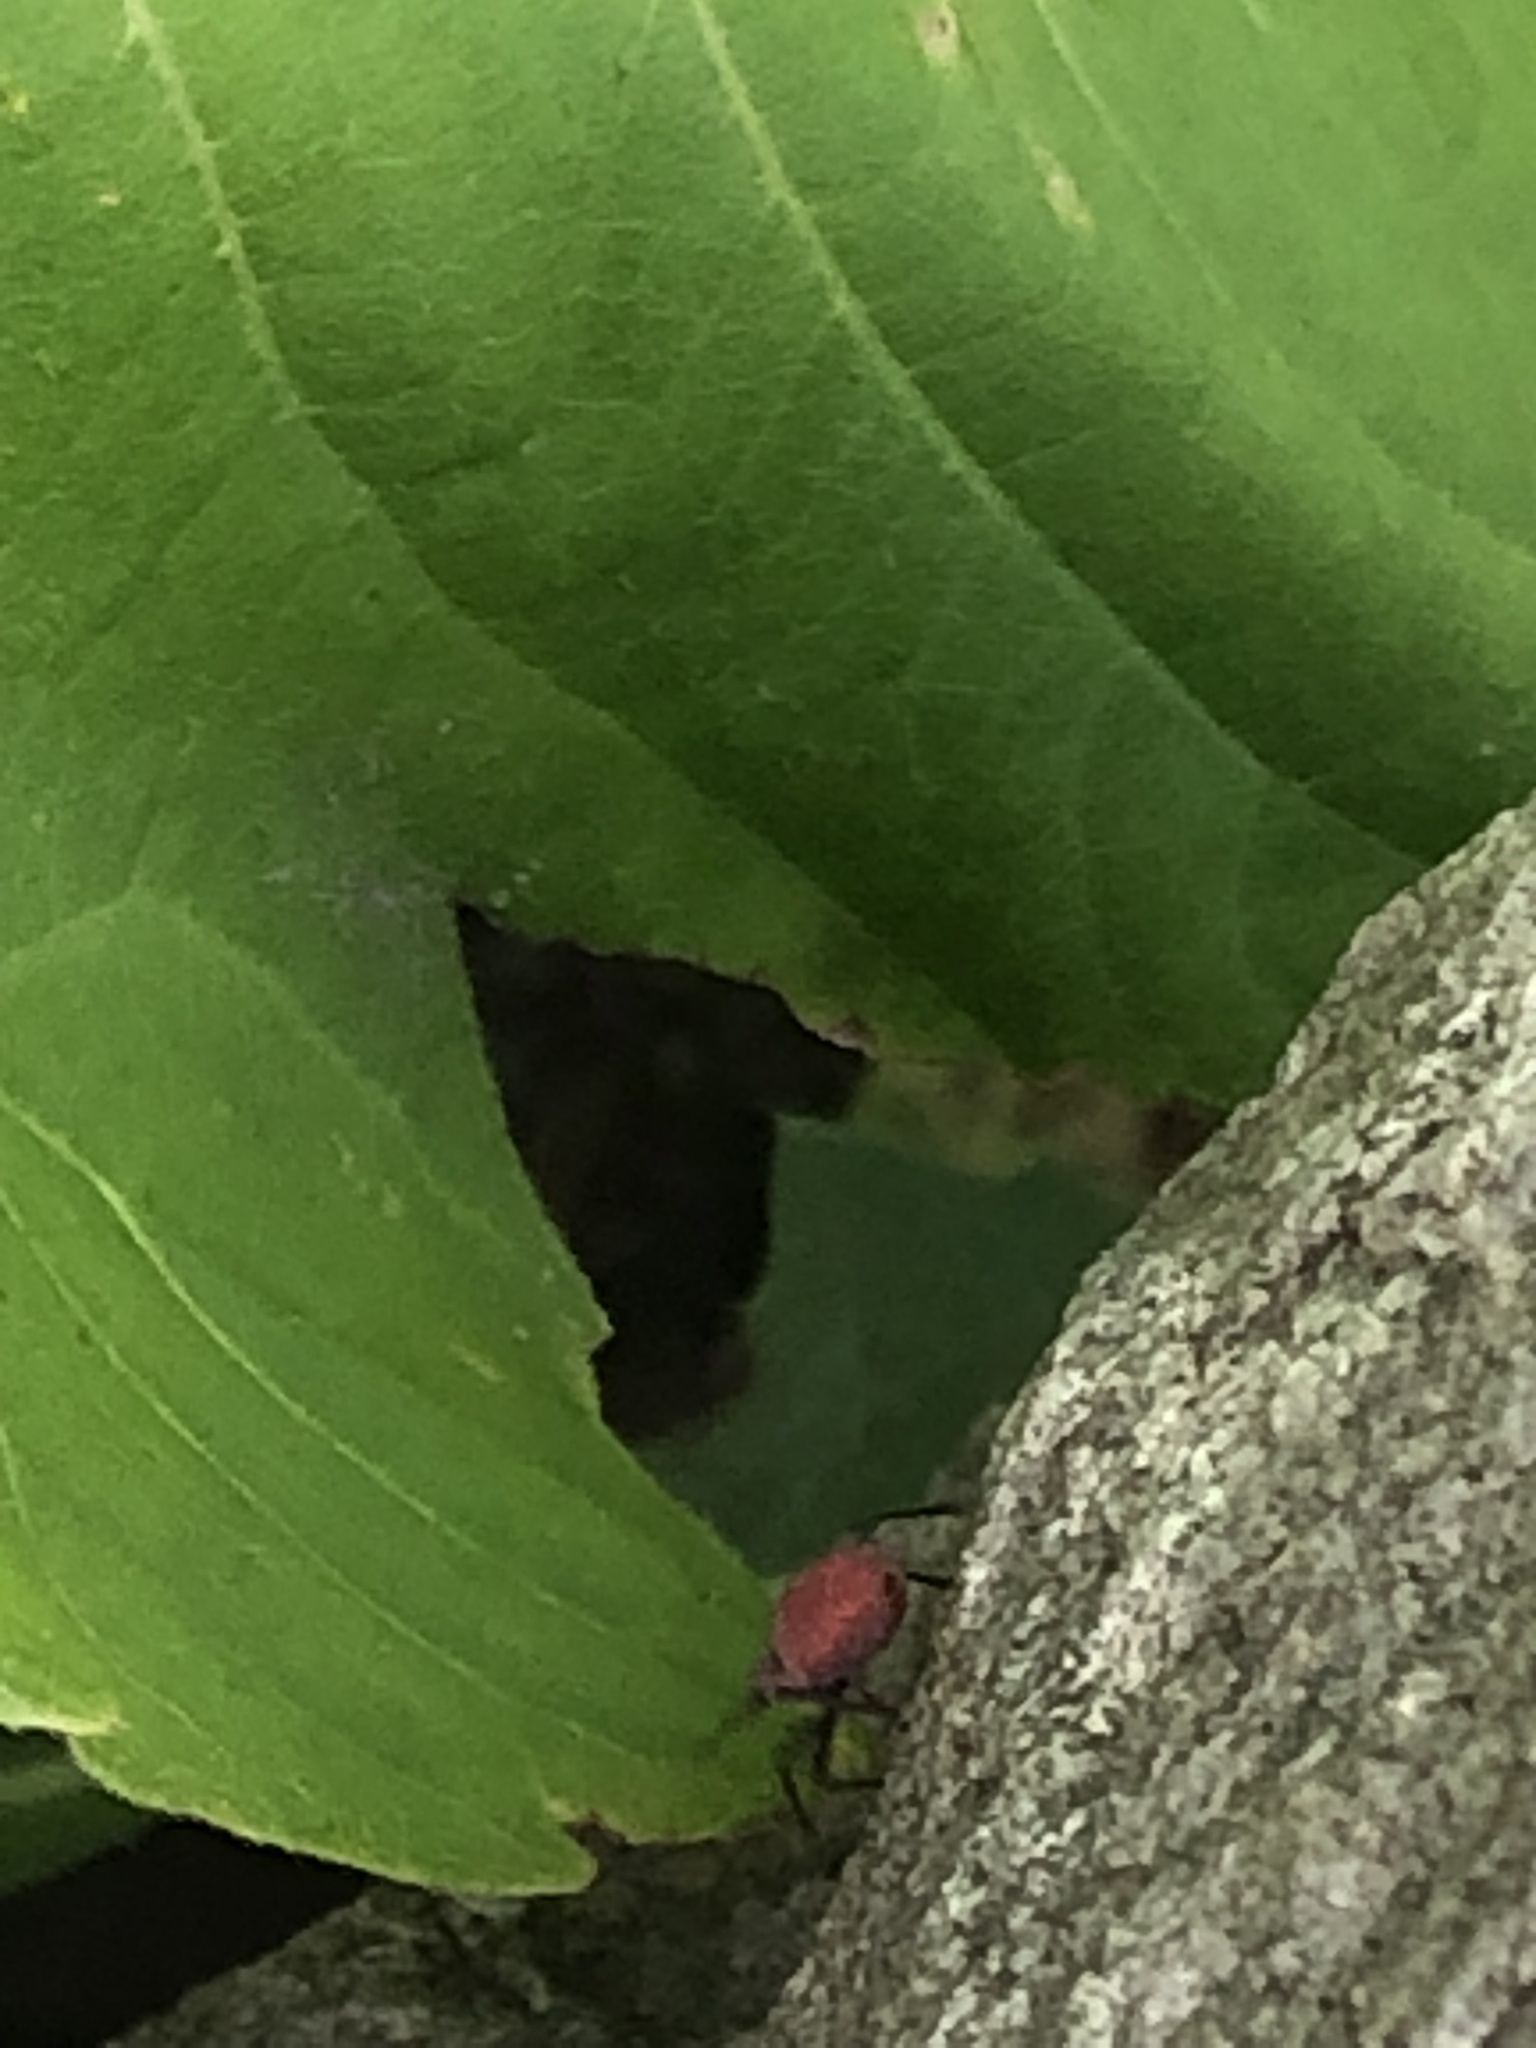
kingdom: Animalia
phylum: Arthropoda
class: Insecta
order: Hemiptera
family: Rhopalidae
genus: Boisea
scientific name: Boisea trivittata
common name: Boxelder bug
